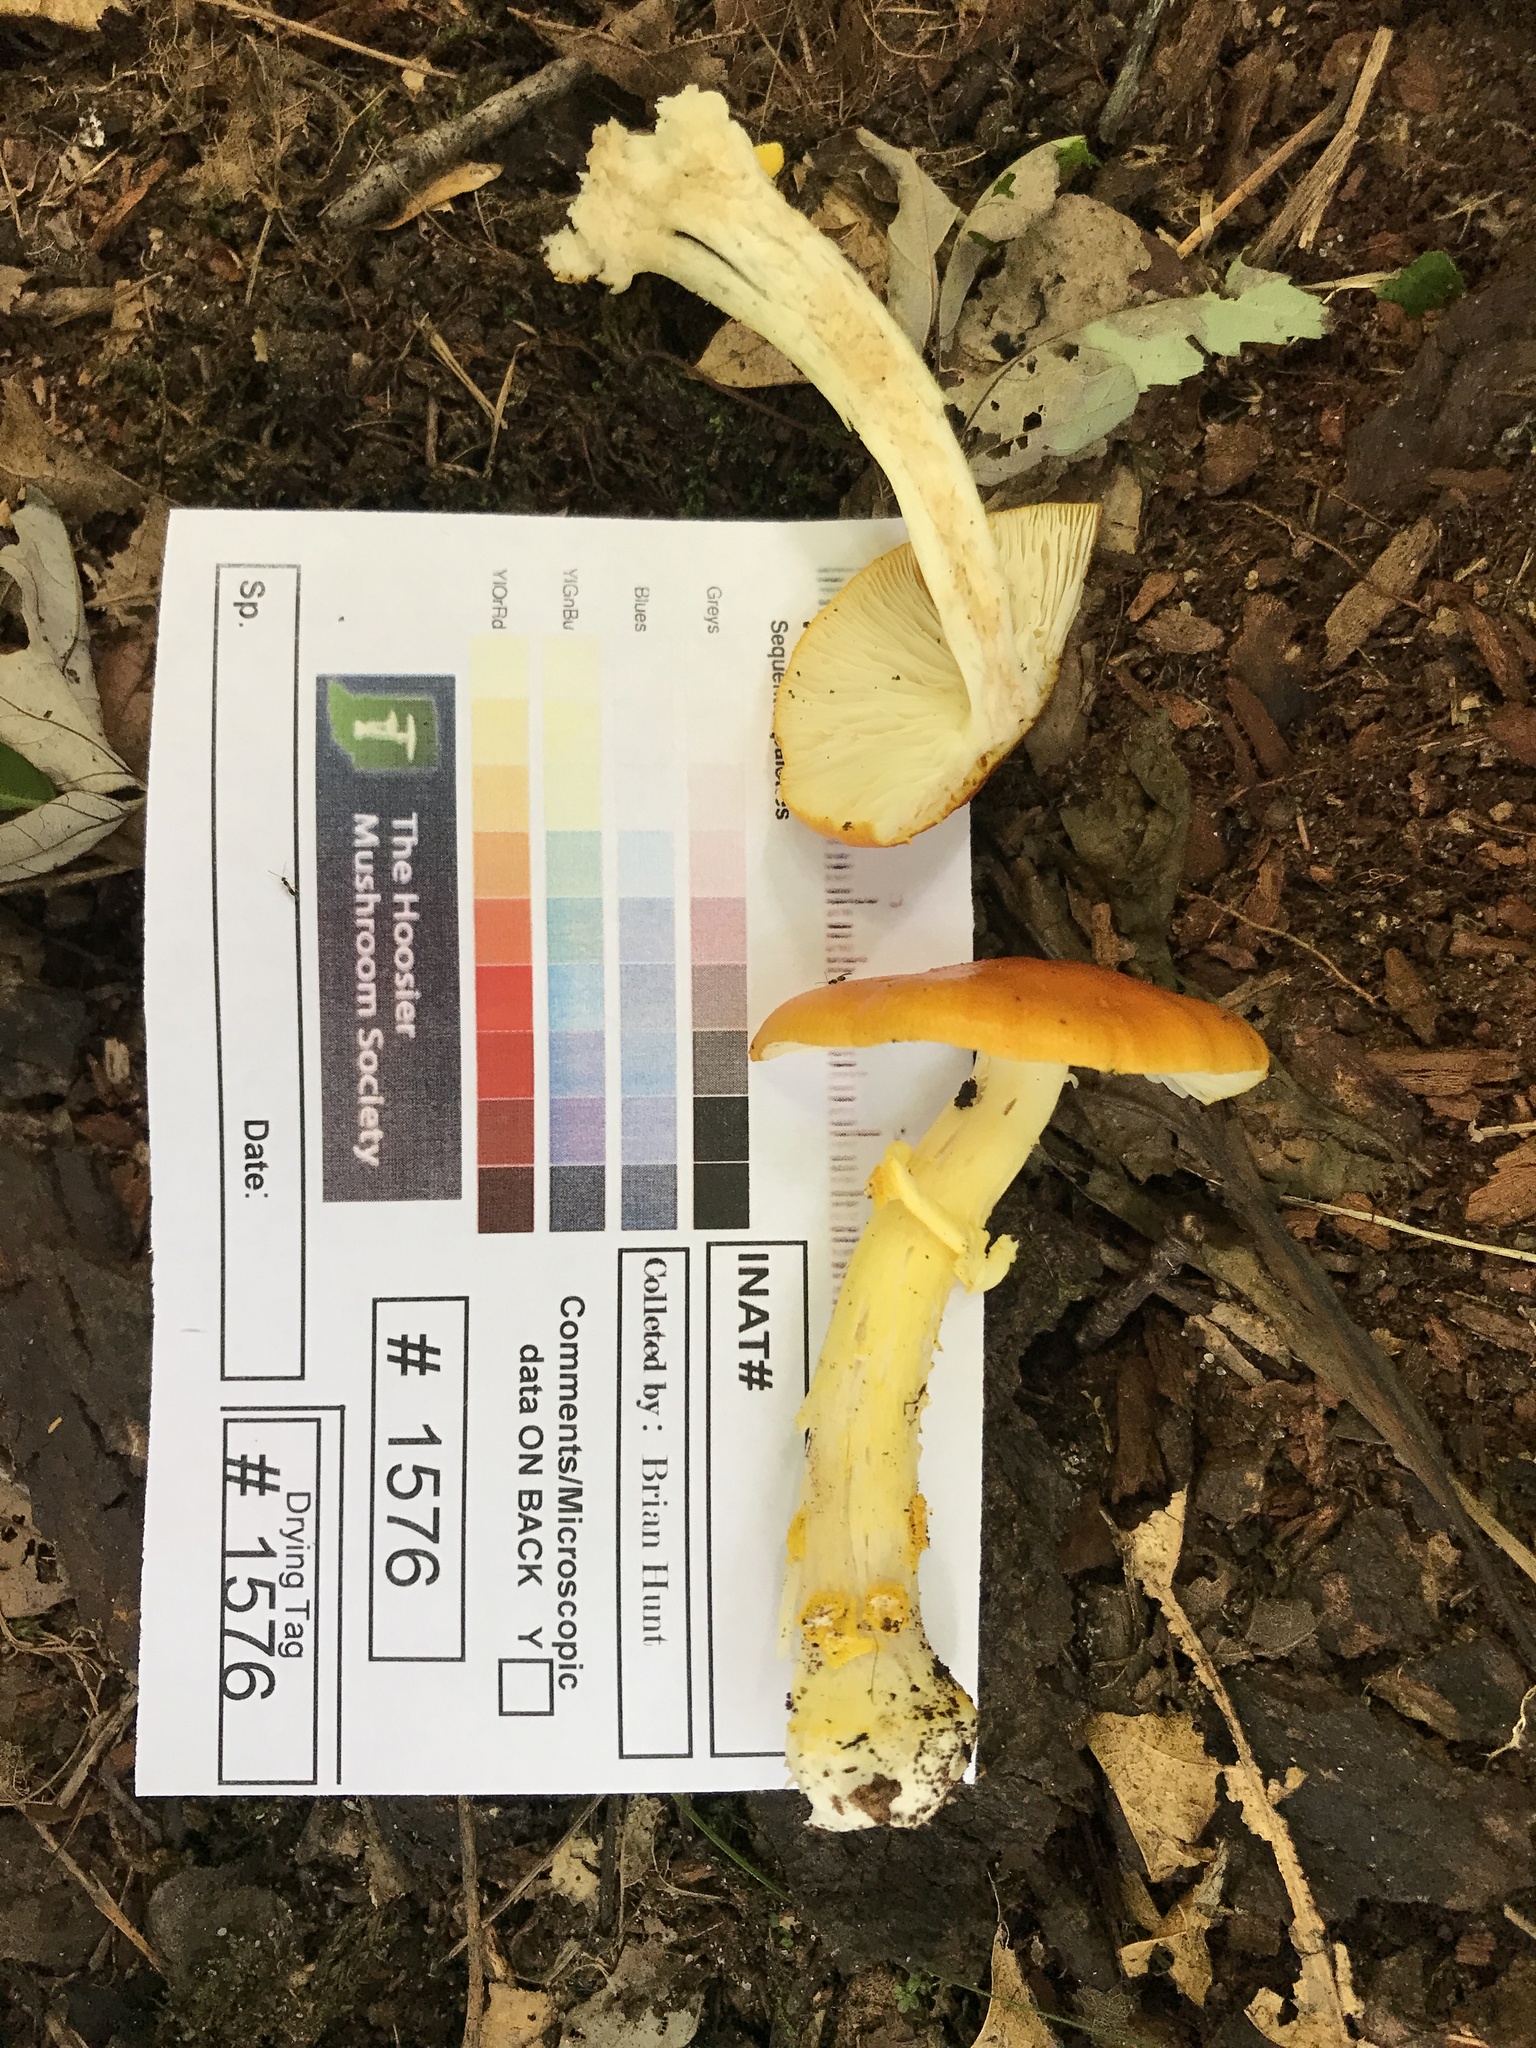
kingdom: Fungi
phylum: Basidiomycota
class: Agaricomycetes
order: Agaricales
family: Amanitaceae
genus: Amanita
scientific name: Amanita flavoconia
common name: Yellow patches
